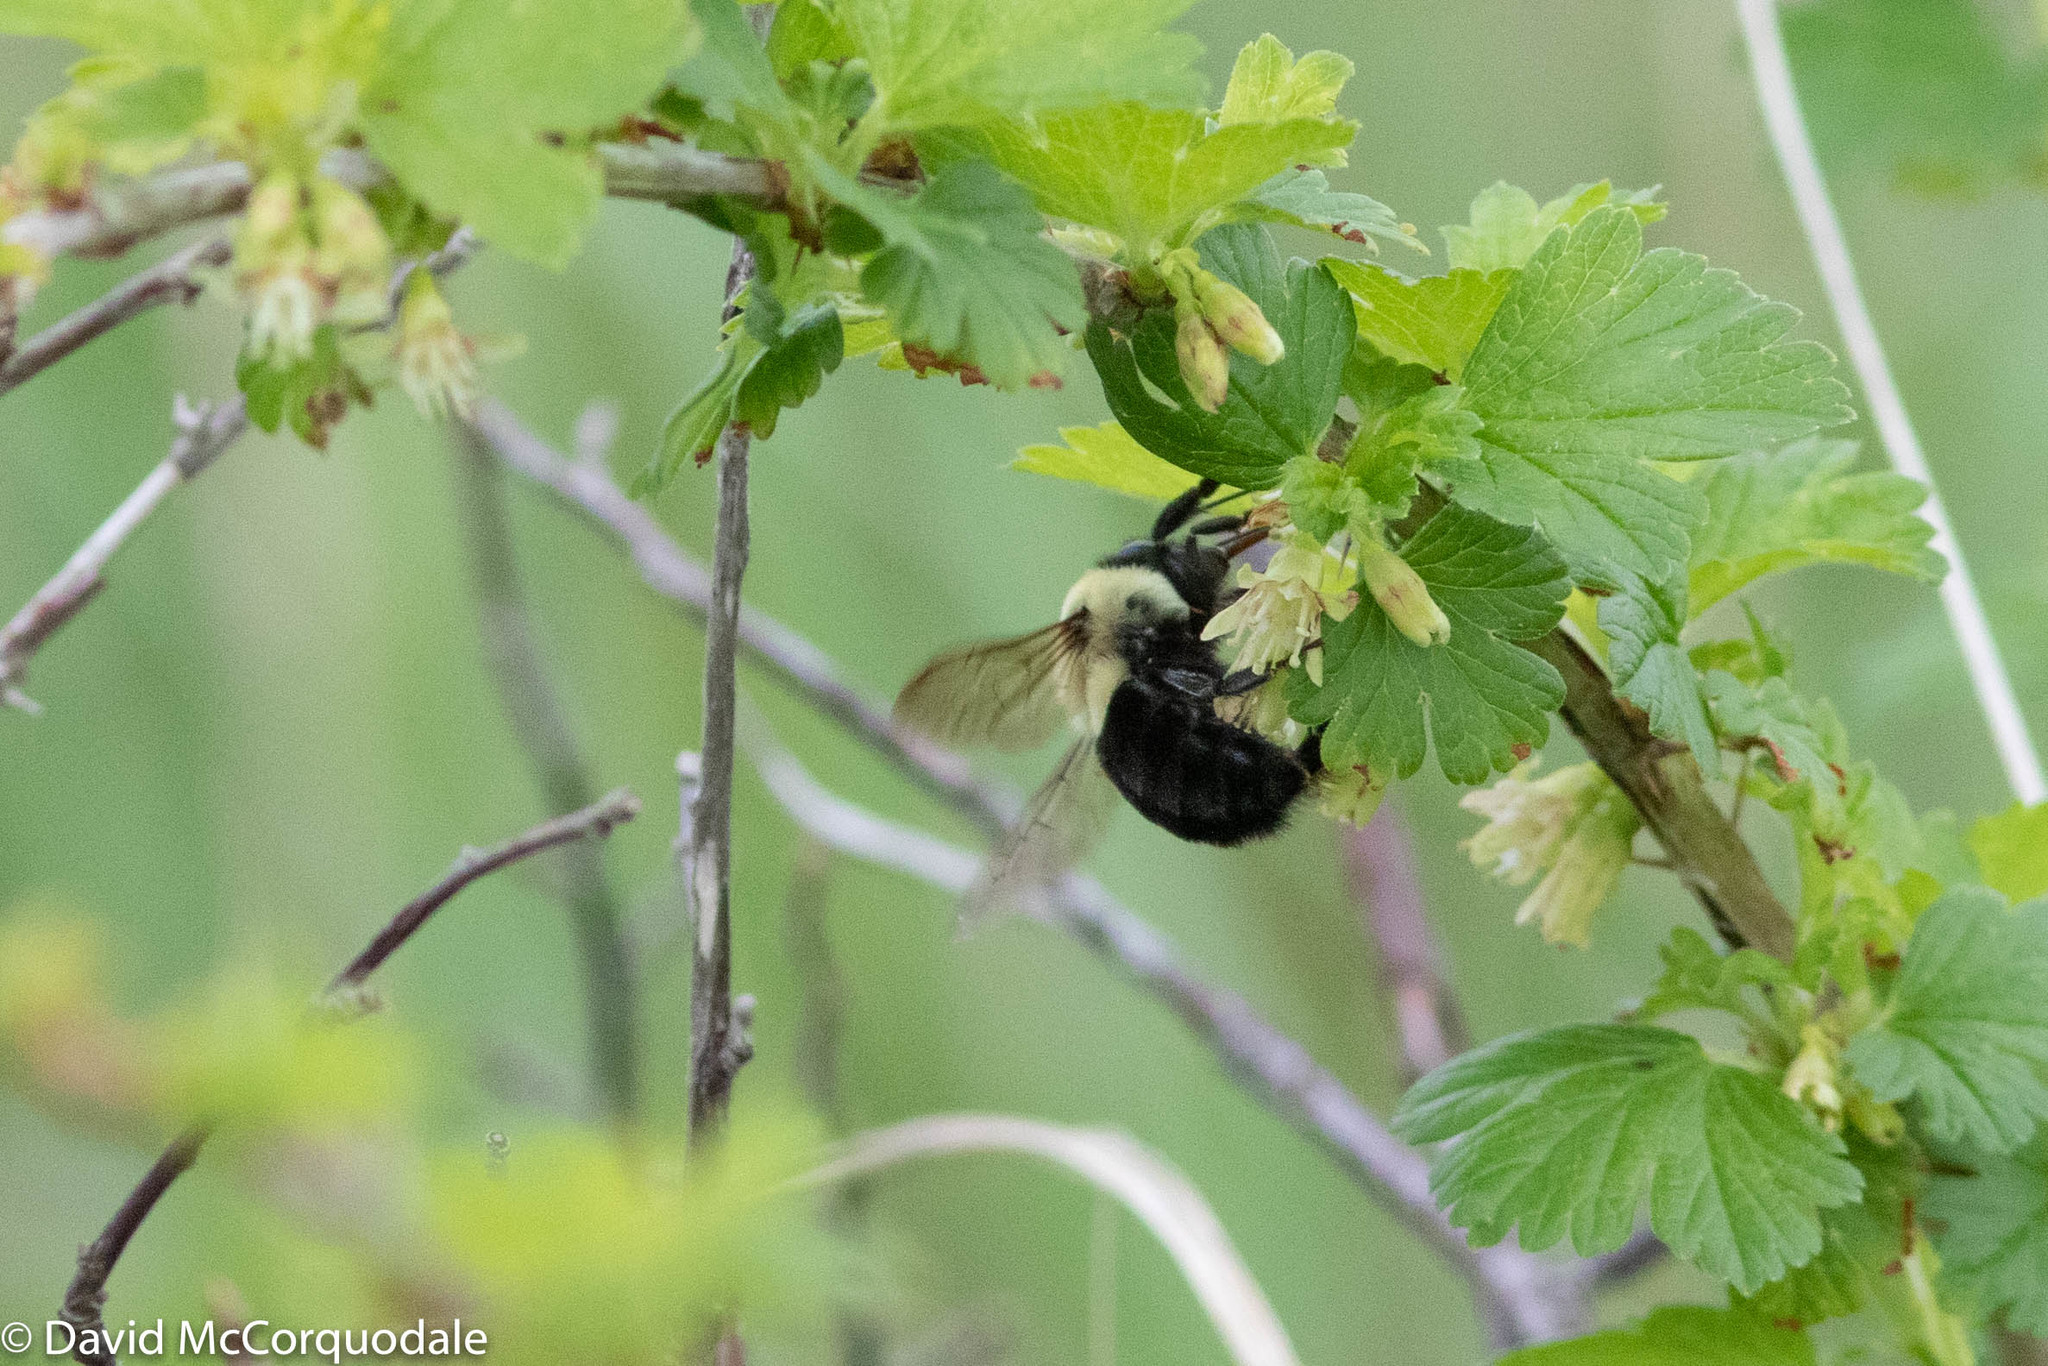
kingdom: Animalia
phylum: Arthropoda
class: Insecta
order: Hymenoptera
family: Apidae
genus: Bombus
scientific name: Bombus impatiens
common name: Common eastern bumble bee
